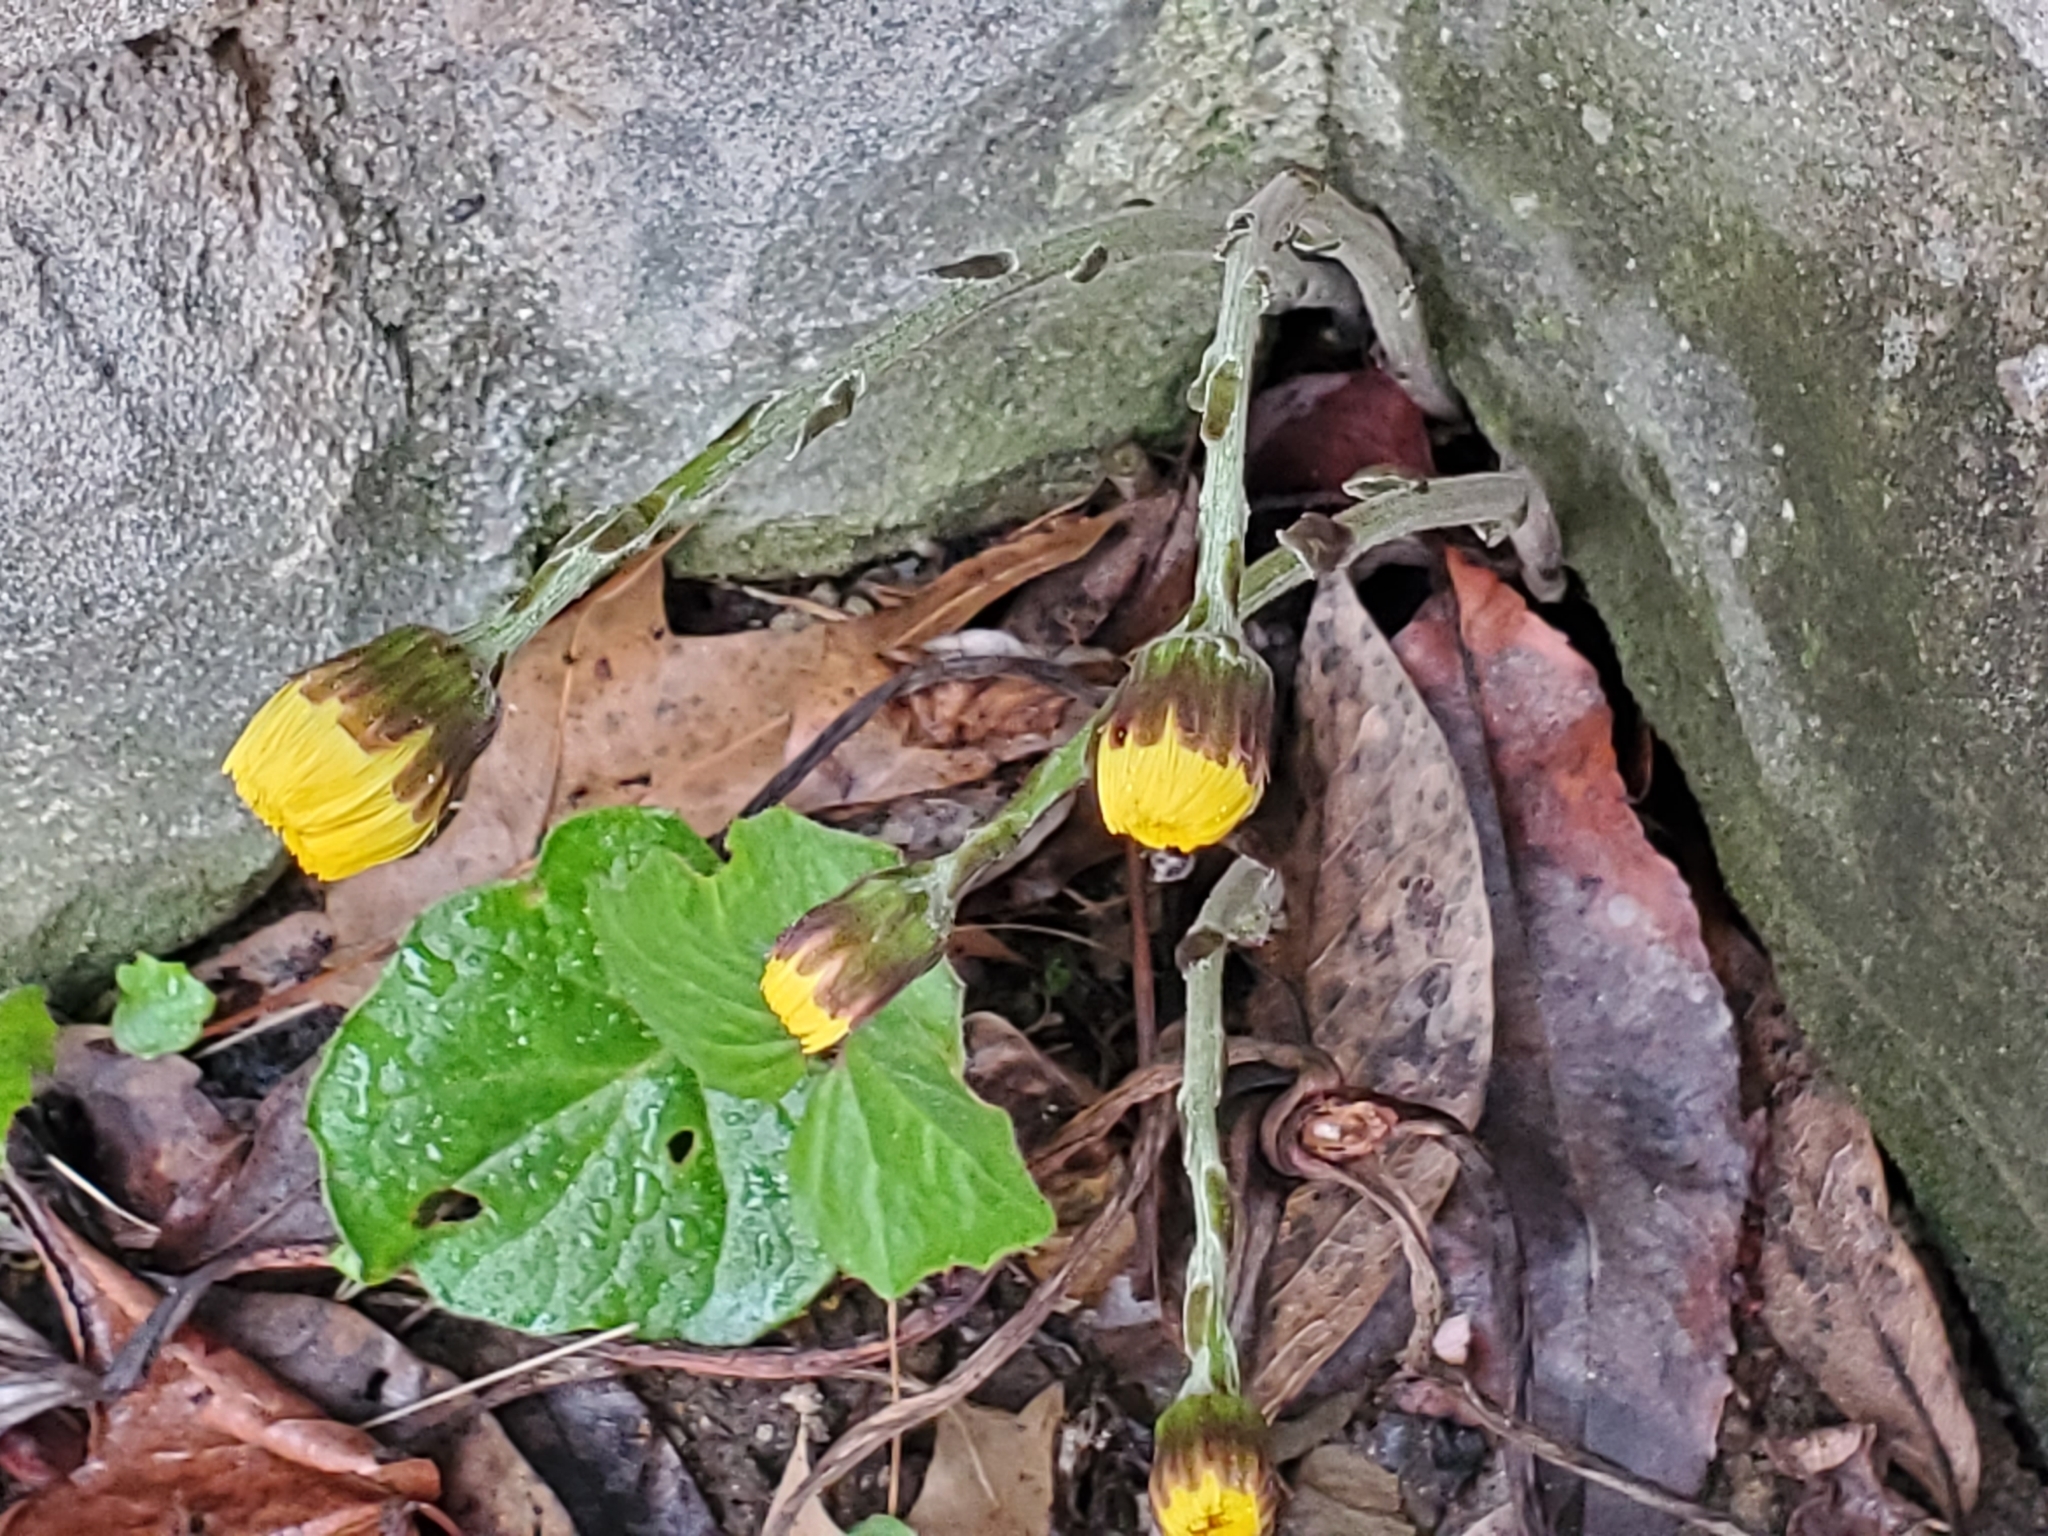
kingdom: Plantae
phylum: Tracheophyta
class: Magnoliopsida
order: Asterales
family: Asteraceae
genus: Tussilago
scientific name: Tussilago farfara
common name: Coltsfoot
